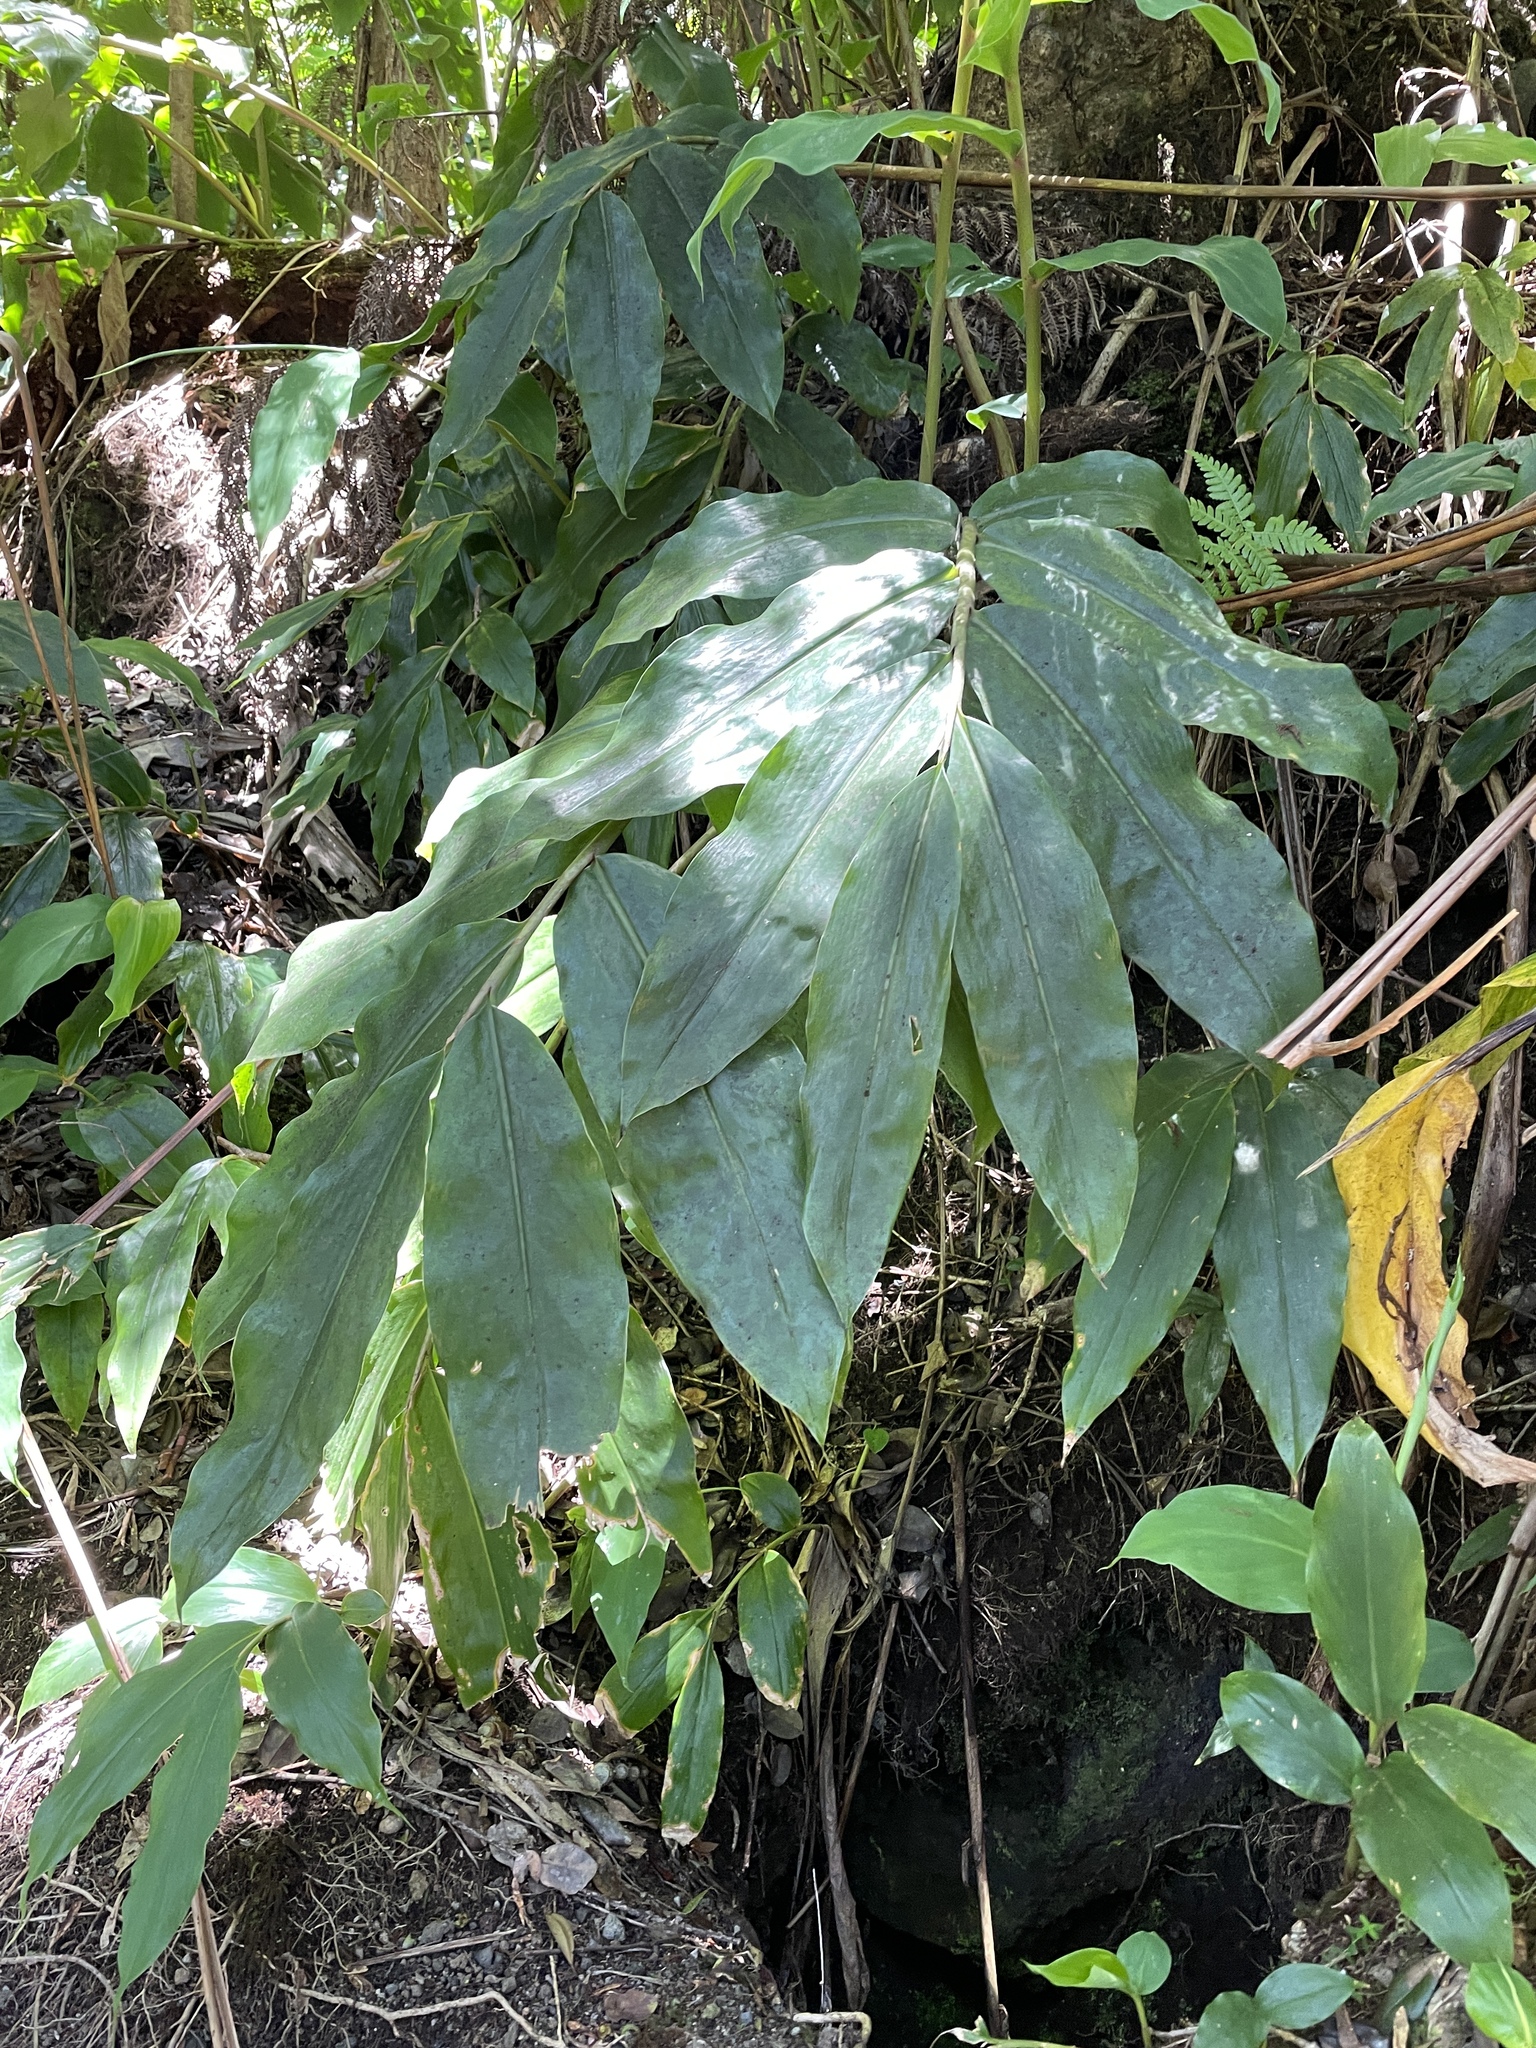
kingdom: Plantae
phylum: Tracheophyta
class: Liliopsida
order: Zingiberales
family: Zingiberaceae
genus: Hedychium
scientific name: Hedychium gardnerianum
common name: Himalayan ginger
